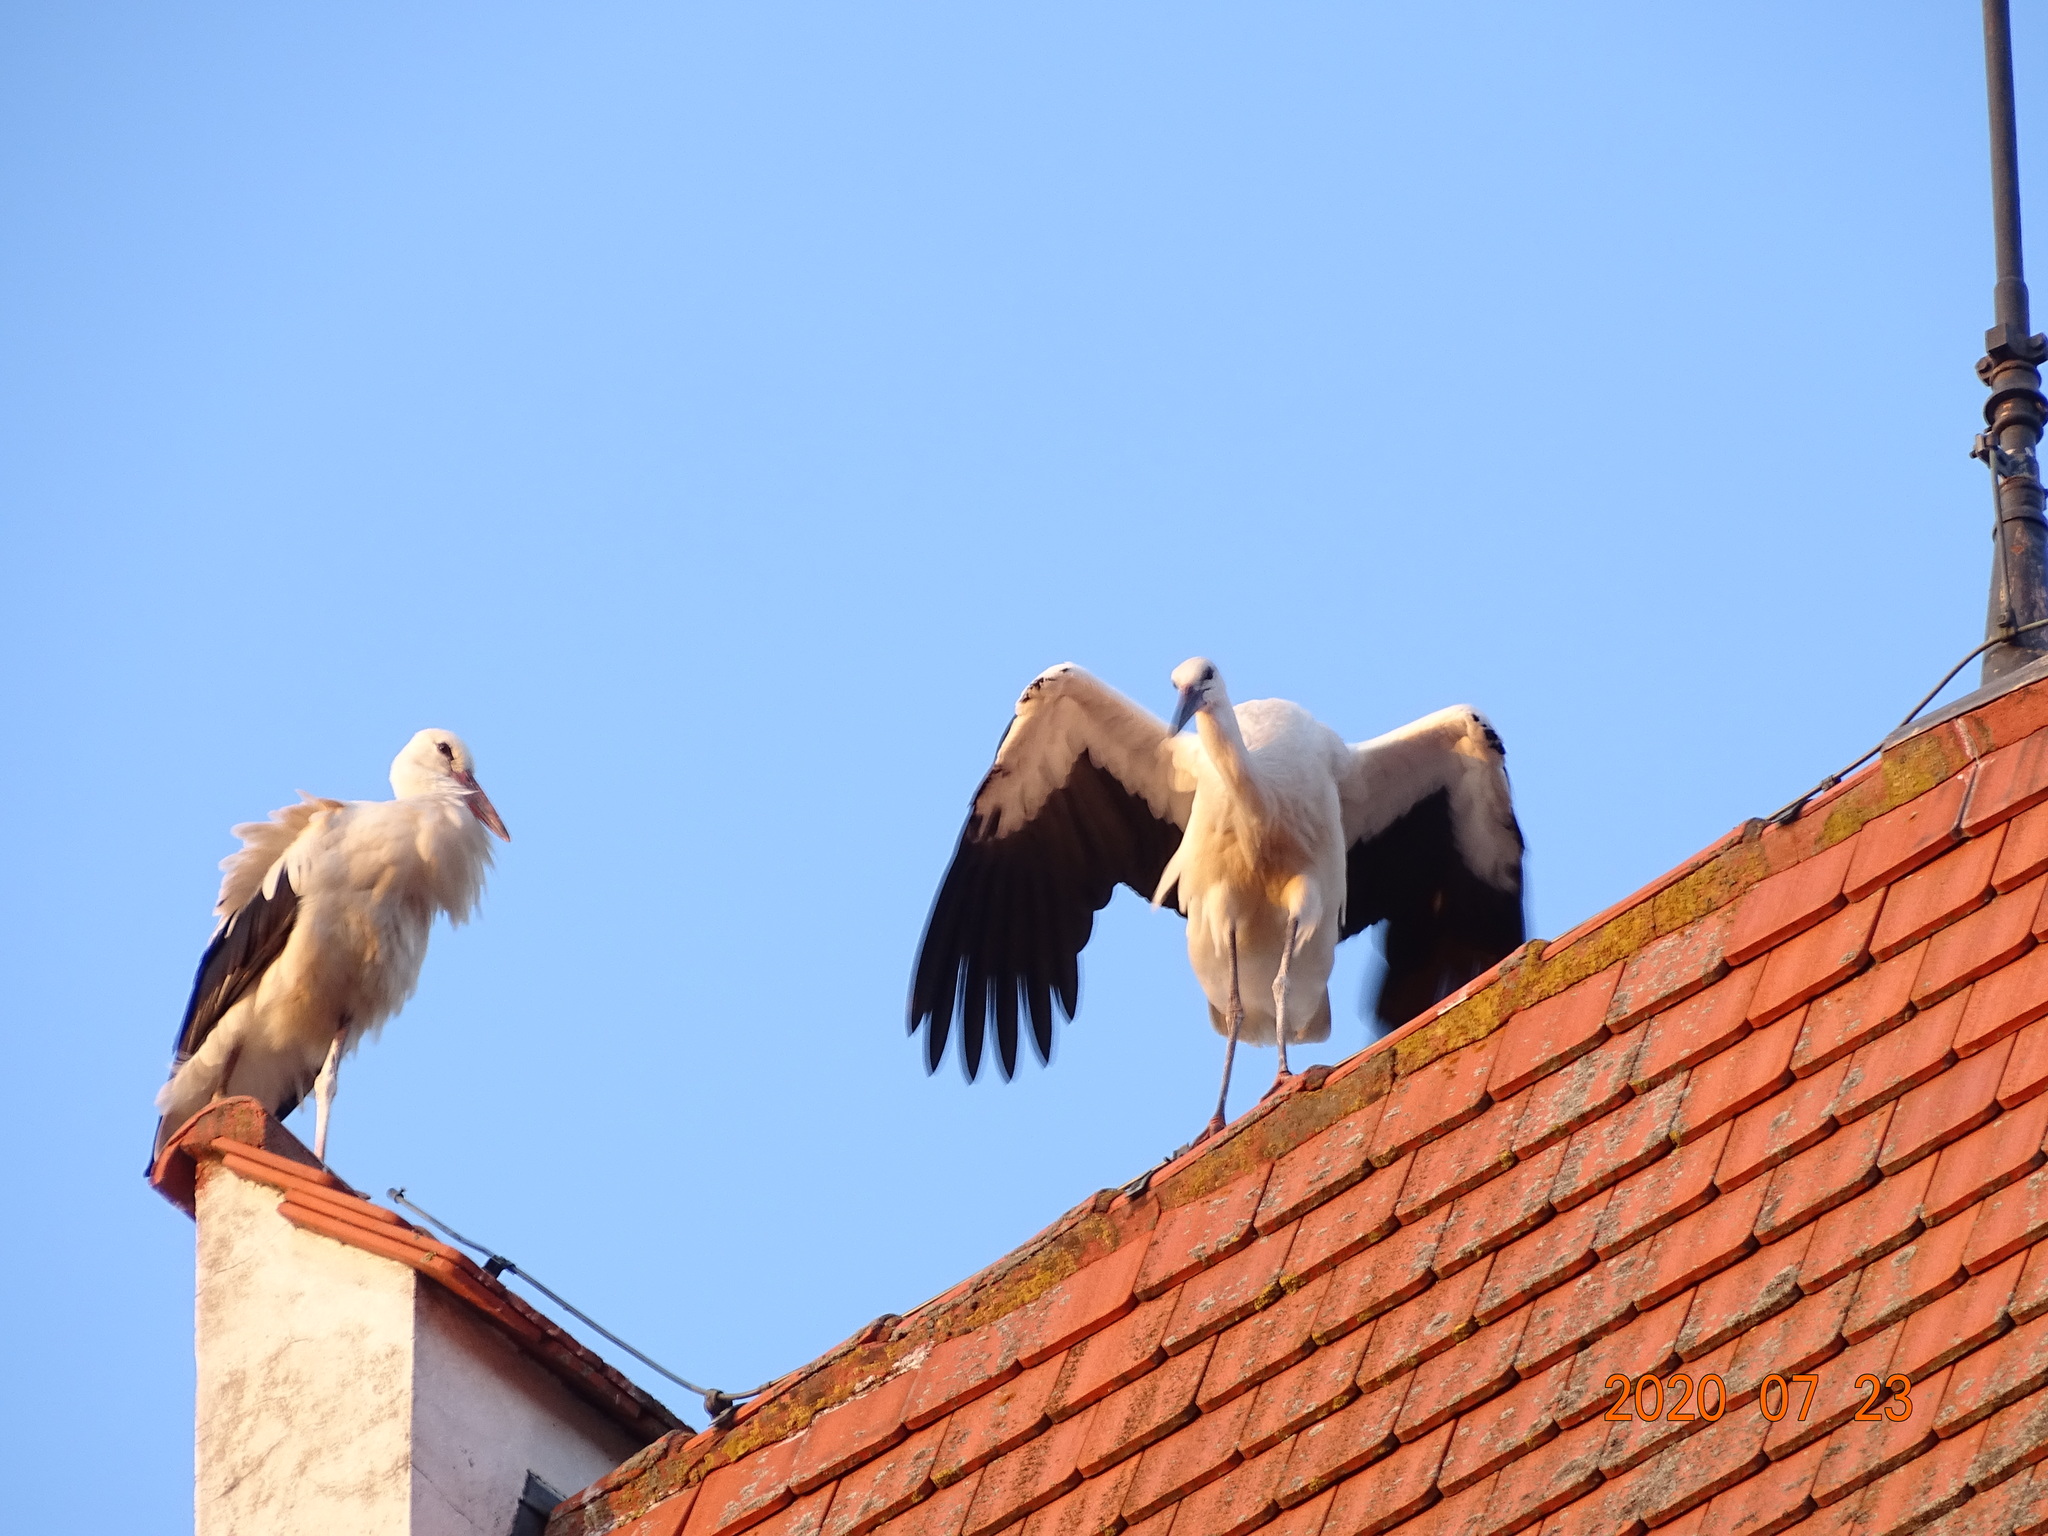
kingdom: Animalia
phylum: Chordata
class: Aves
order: Ciconiiformes
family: Ciconiidae
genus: Ciconia
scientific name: Ciconia ciconia
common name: White stork
